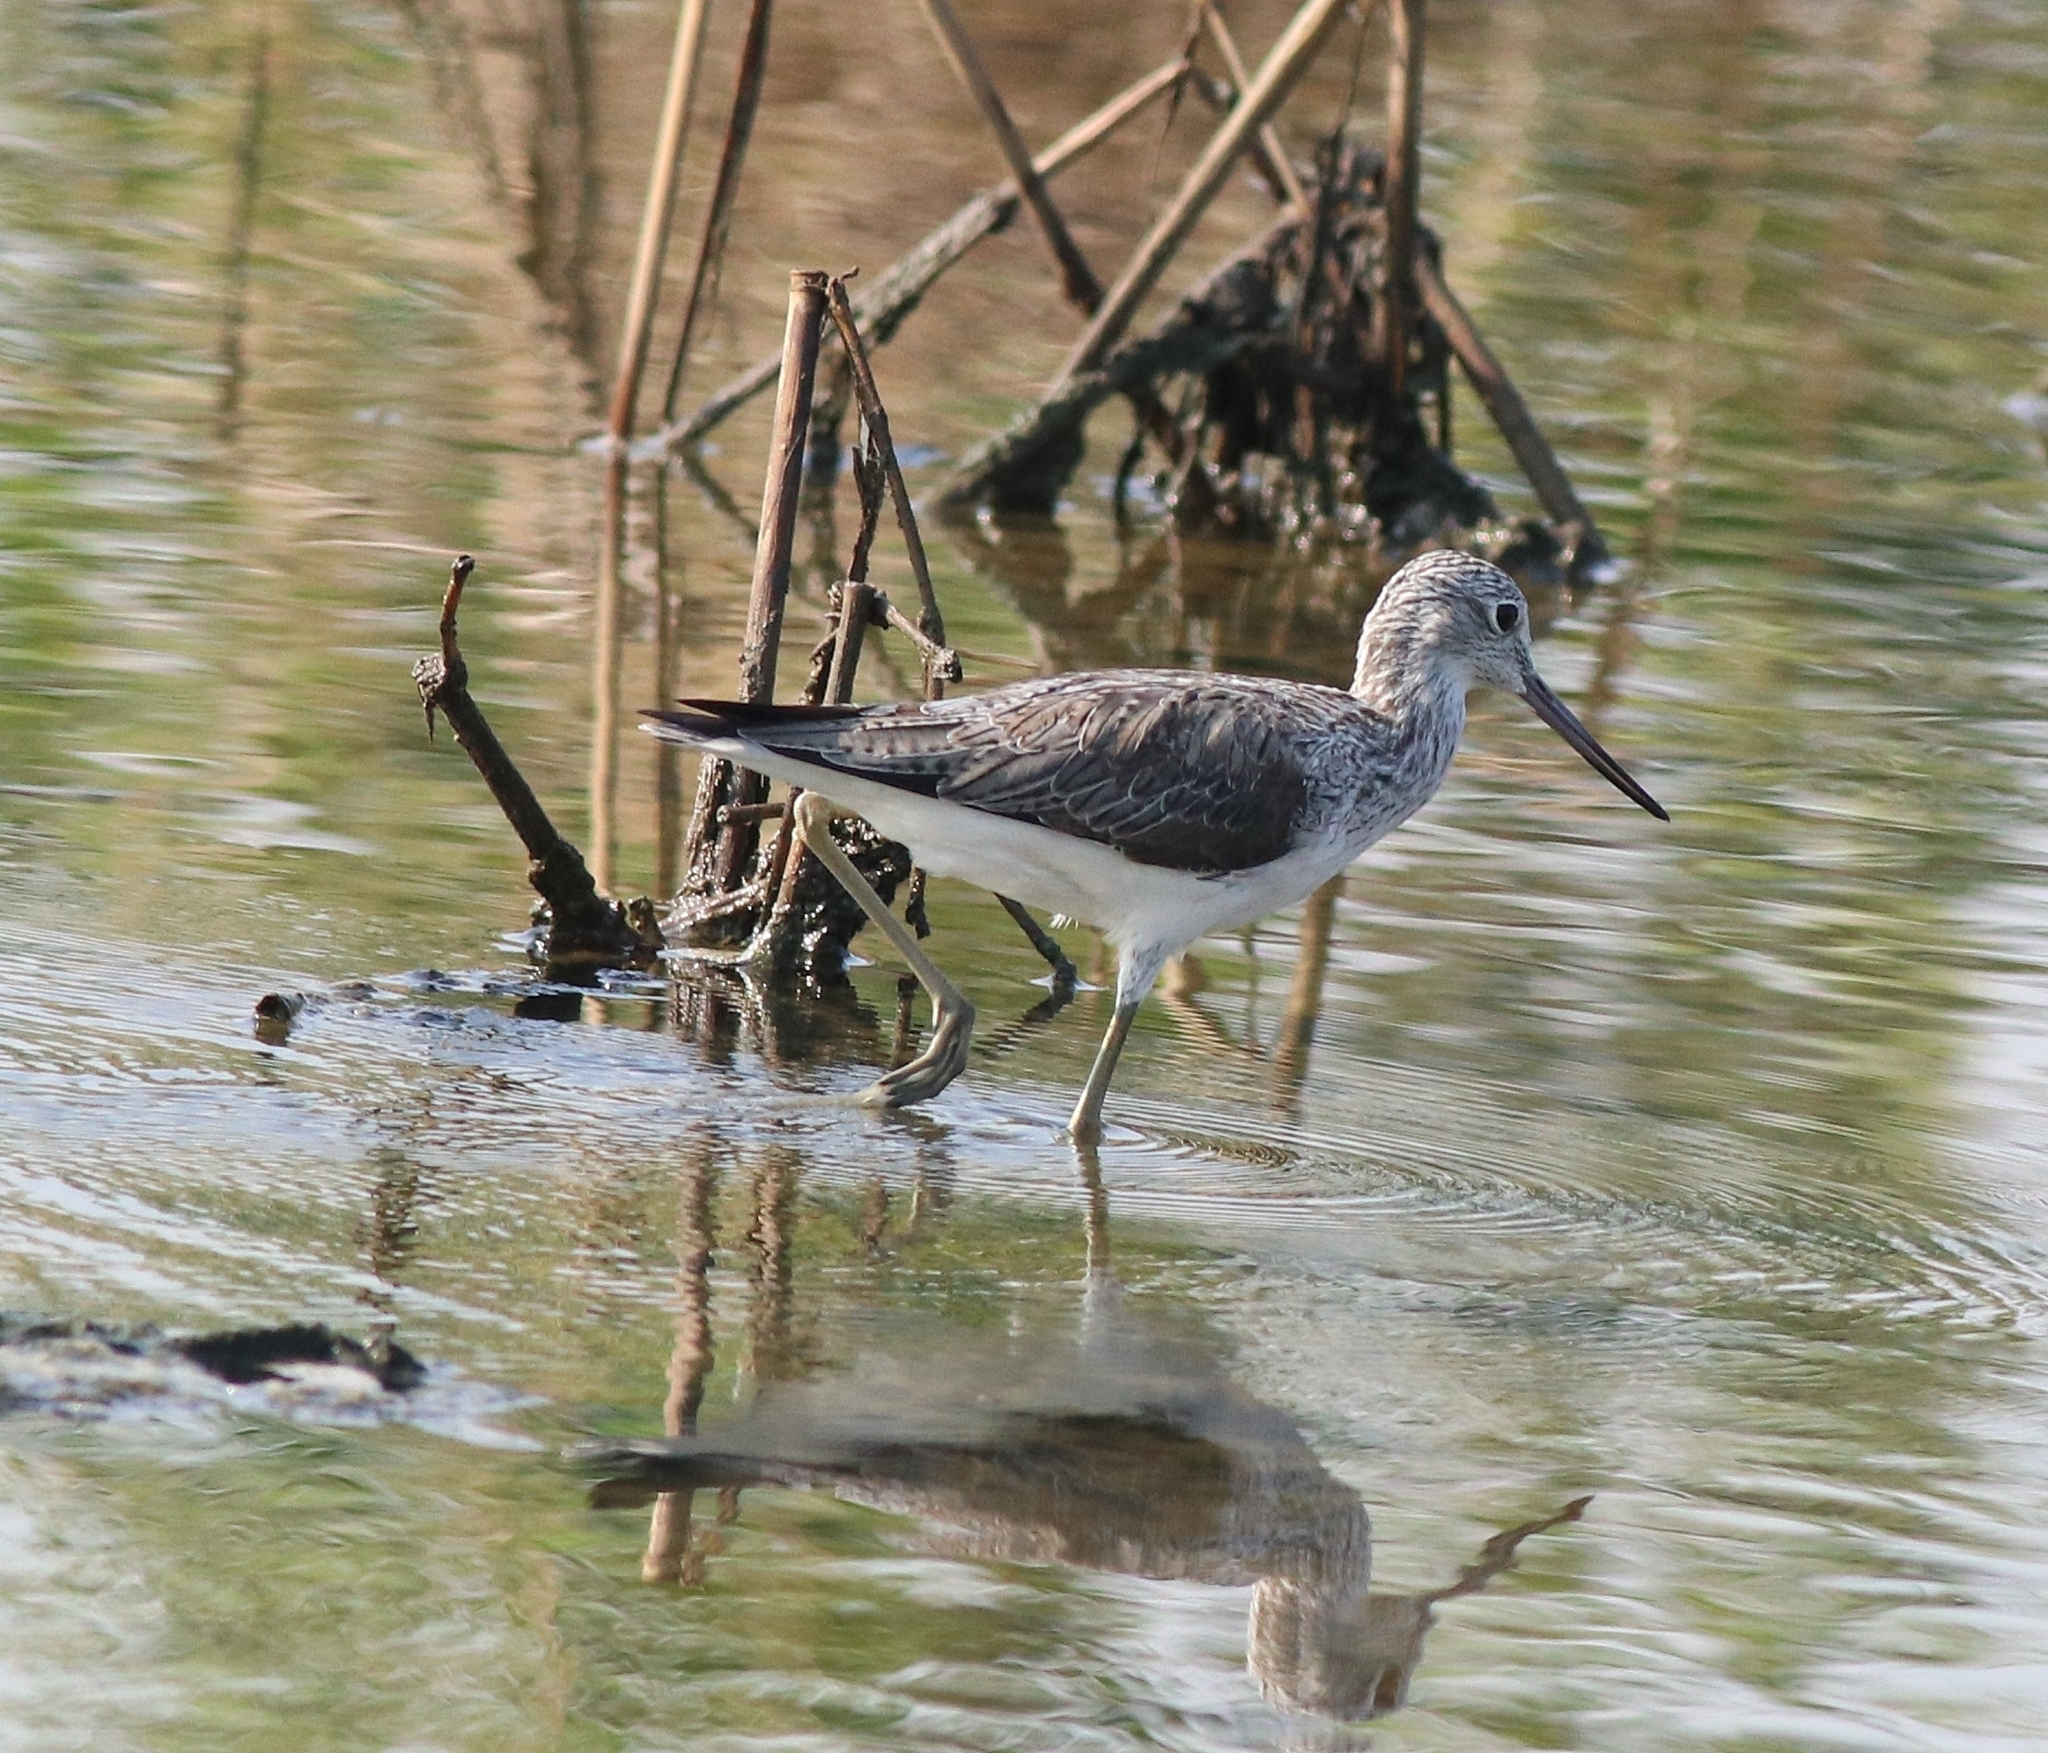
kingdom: Animalia
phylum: Chordata
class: Aves
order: Charadriiformes
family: Scolopacidae
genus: Tringa
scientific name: Tringa nebularia
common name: Common greenshank
